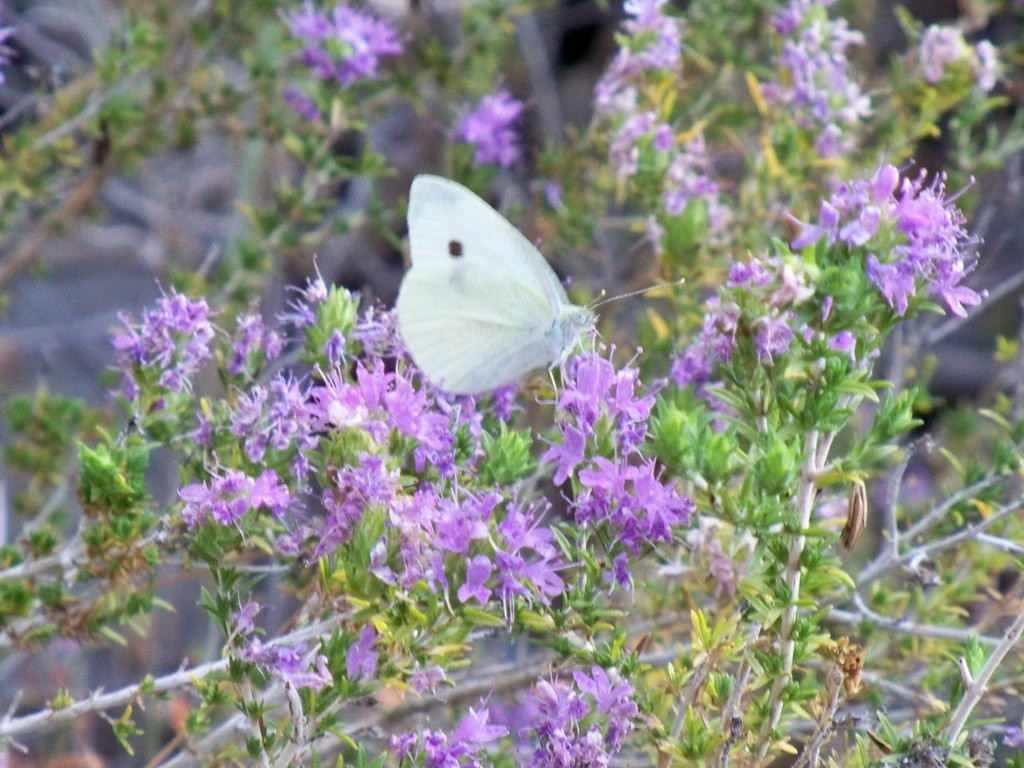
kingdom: Animalia
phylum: Arthropoda
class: Insecta
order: Lepidoptera
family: Pieridae
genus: Pieris
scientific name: Pieris rapae
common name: Small white
